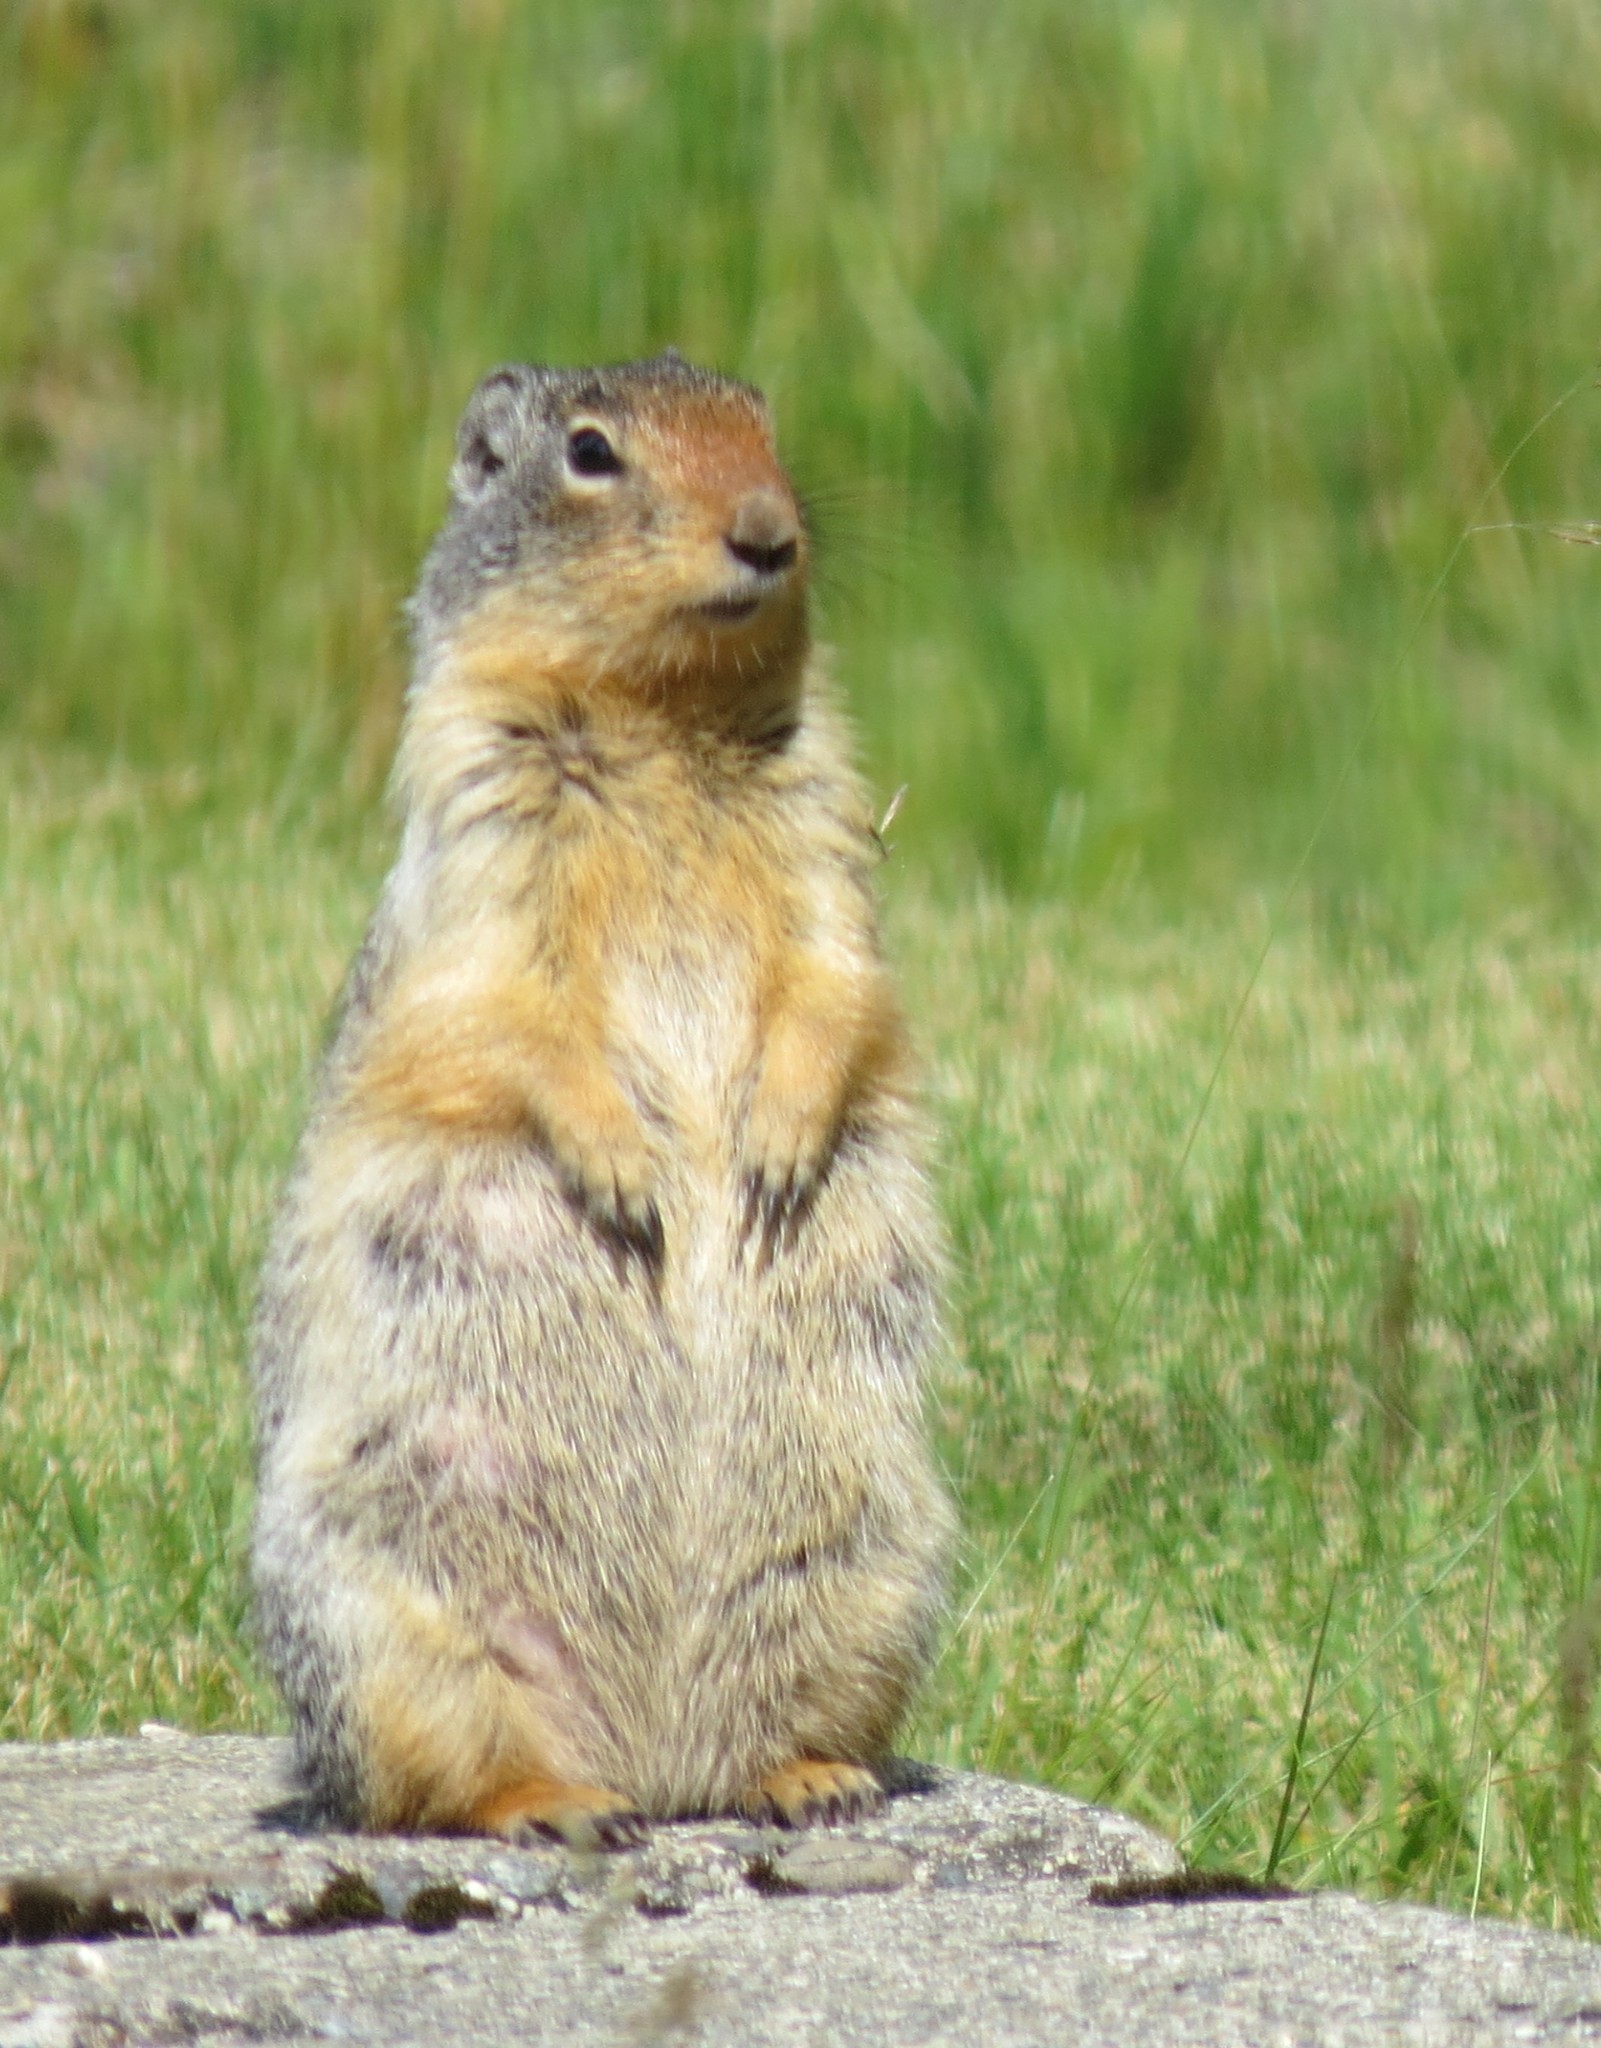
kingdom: Animalia
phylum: Chordata
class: Mammalia
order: Rodentia
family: Sciuridae
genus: Urocitellus
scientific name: Urocitellus columbianus
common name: Columbian ground squirrel
